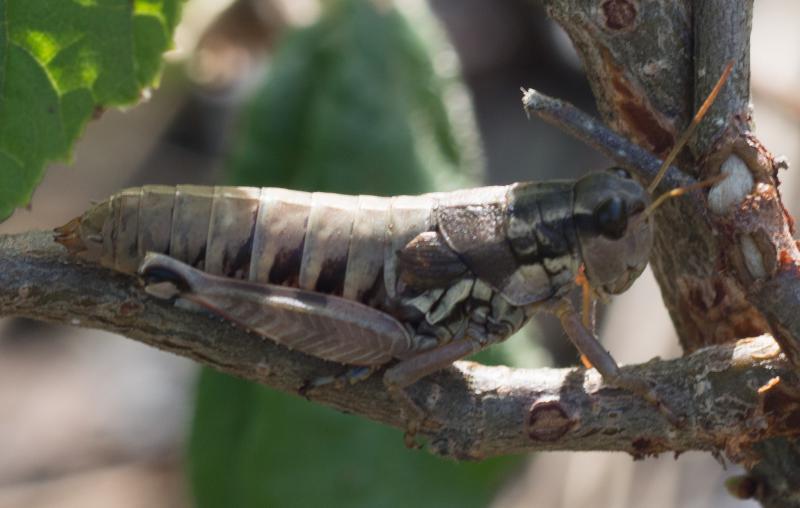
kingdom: Animalia
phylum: Arthropoda
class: Insecta
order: Orthoptera
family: Acrididae
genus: Podisma
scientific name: Podisma pedestris
